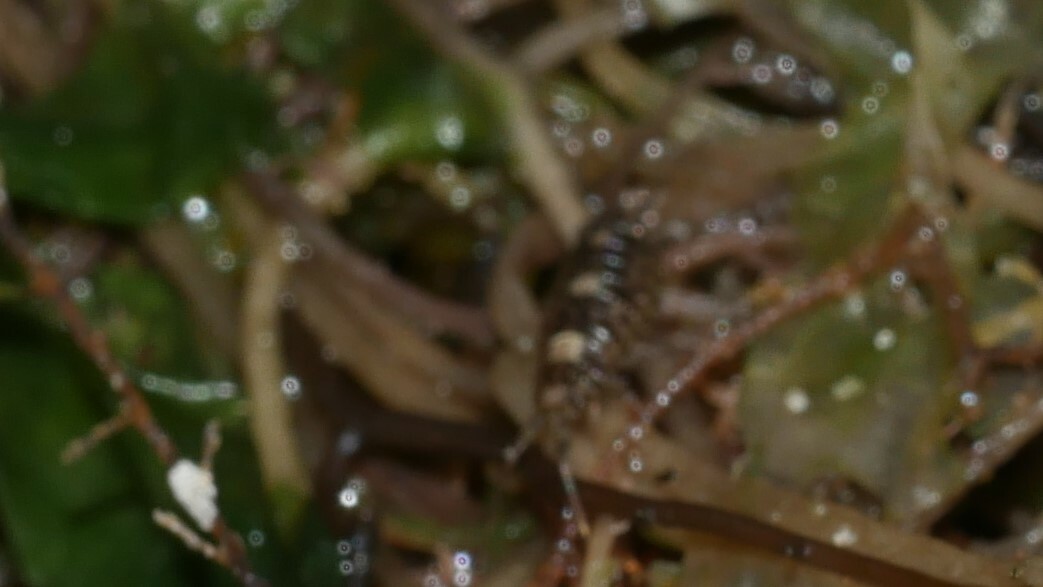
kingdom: Animalia
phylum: Arthropoda
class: Malacostraca
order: Isopoda
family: Ligiidae
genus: Ligia
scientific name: Ligia exotica
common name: Wharf roach
